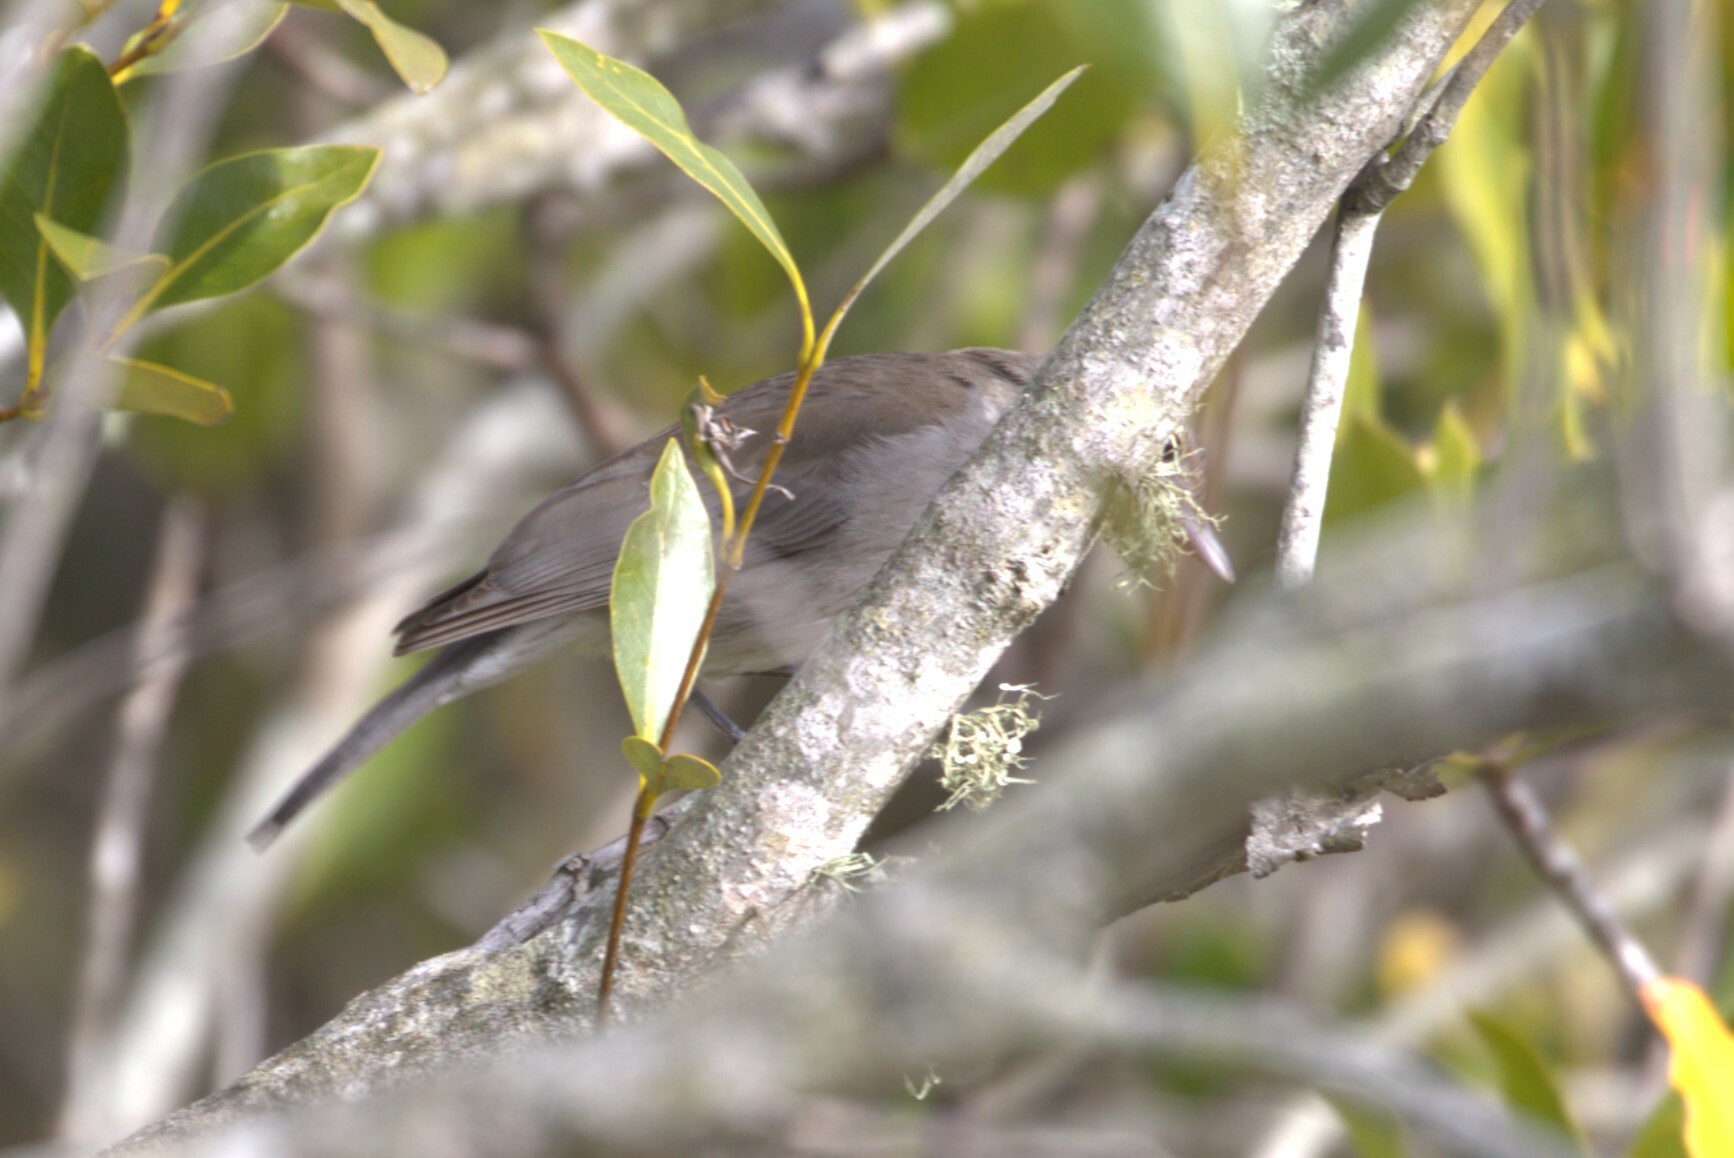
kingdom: Animalia
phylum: Chordata
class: Aves
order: Passeriformes
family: Pachycephalidae
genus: Colluricincla
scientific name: Colluricincla harmonica
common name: Grey shrikethrush
